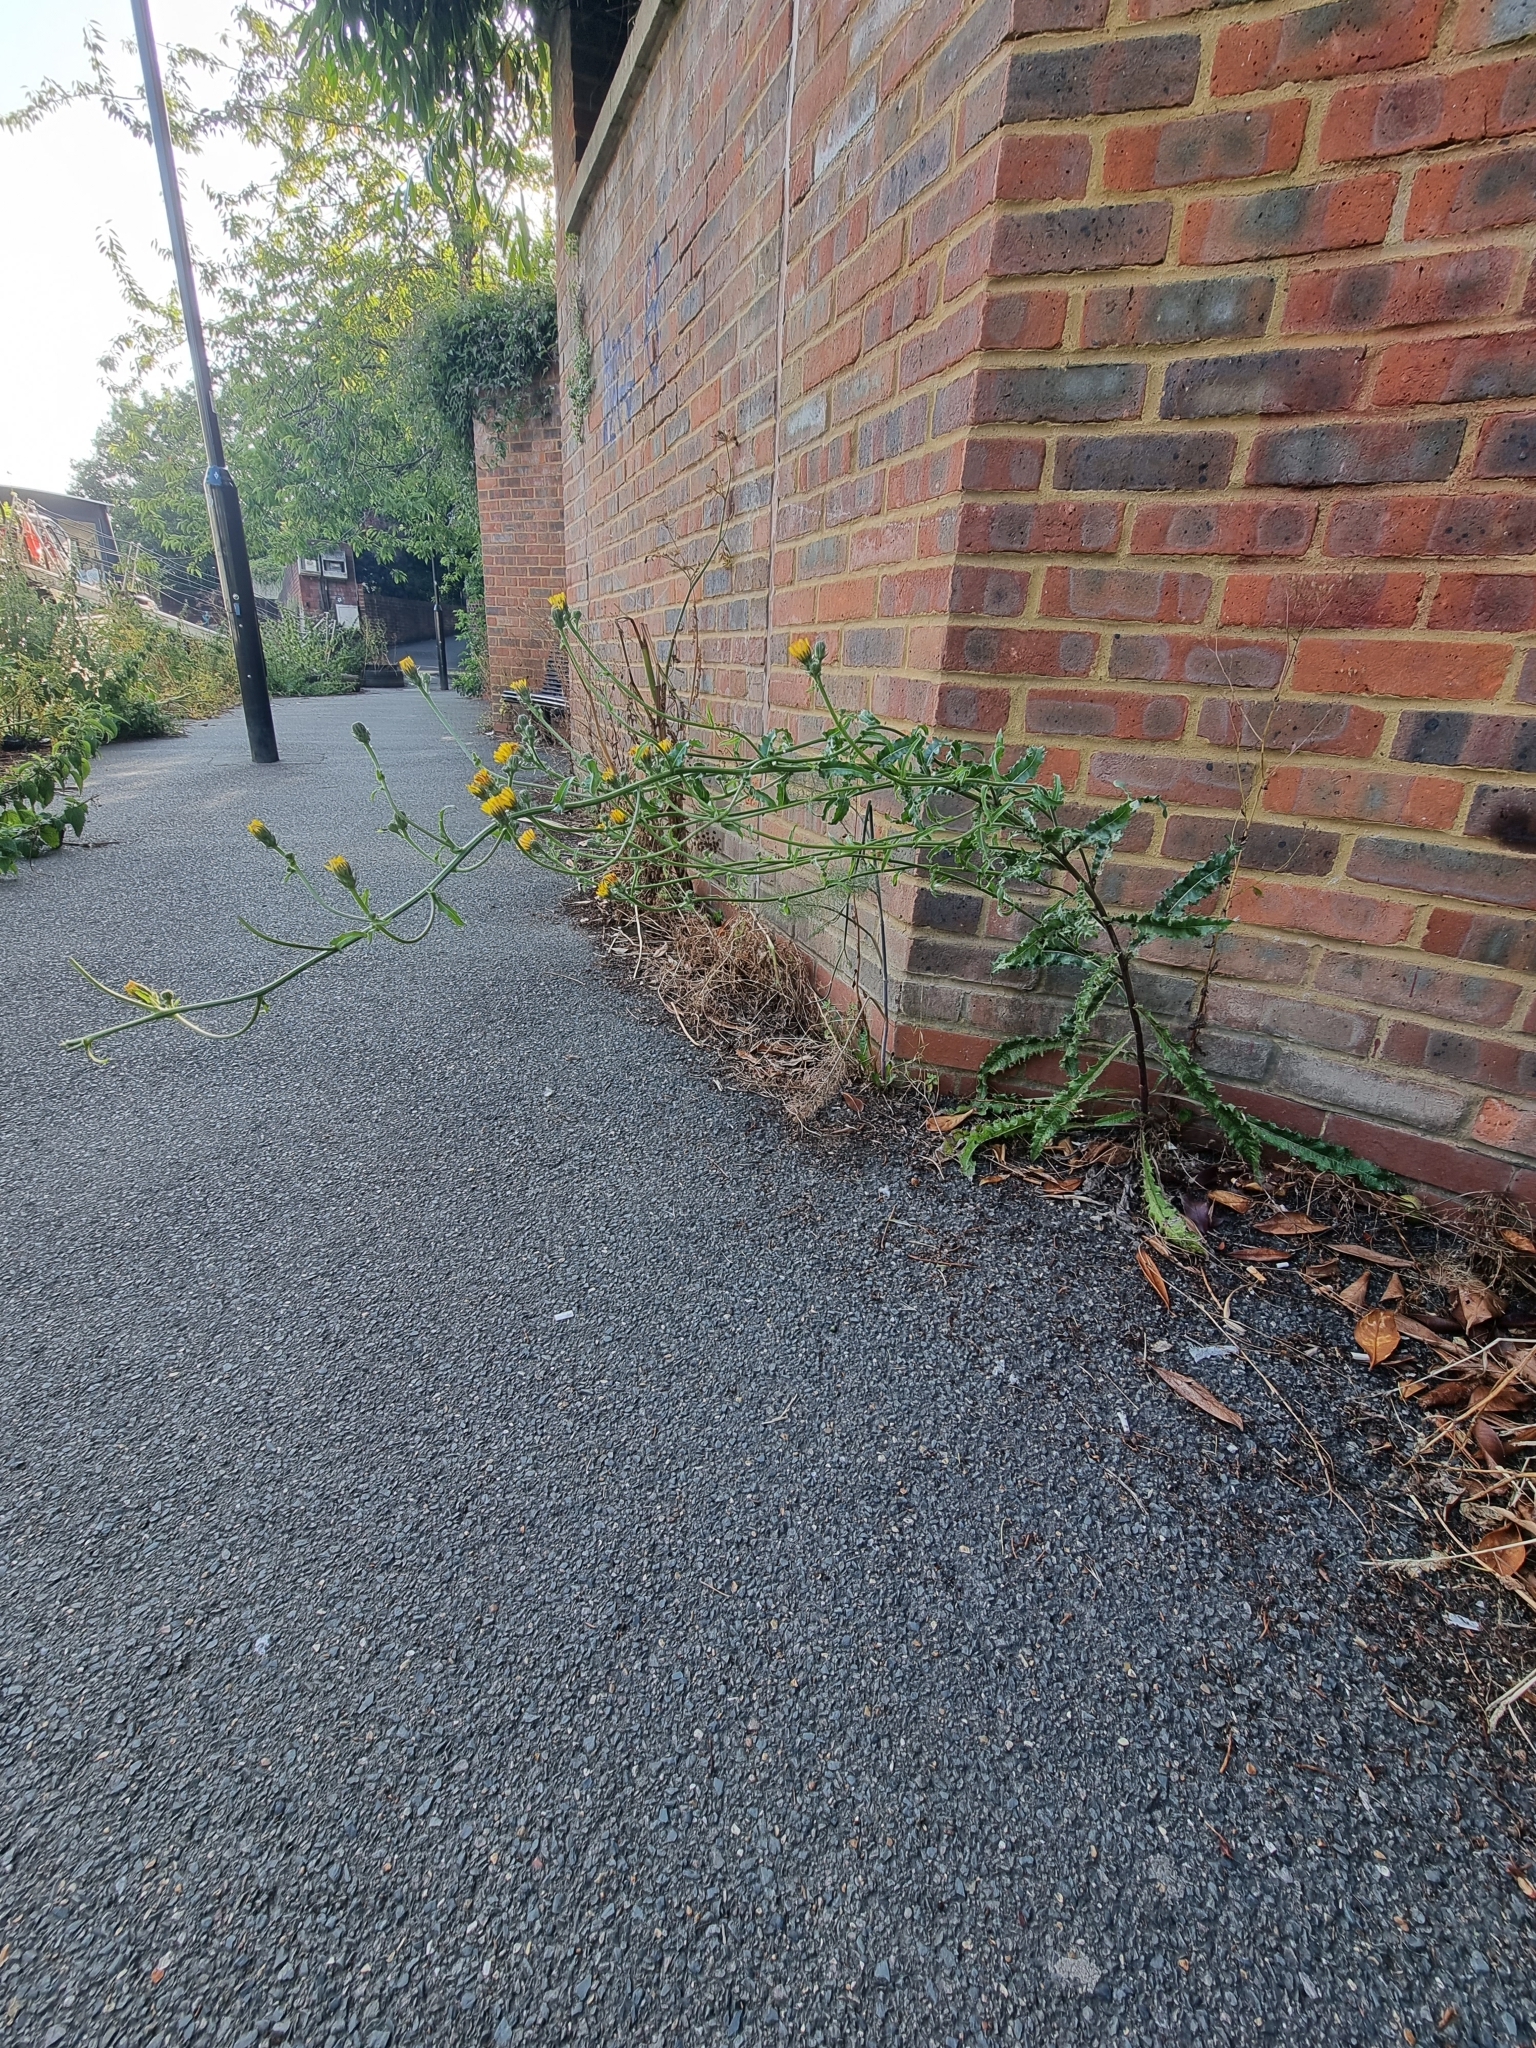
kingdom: Plantae
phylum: Tracheophyta
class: Magnoliopsida
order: Asterales
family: Asteraceae
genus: Picris
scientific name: Picris hieracioides
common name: Hawkweed oxtongue
